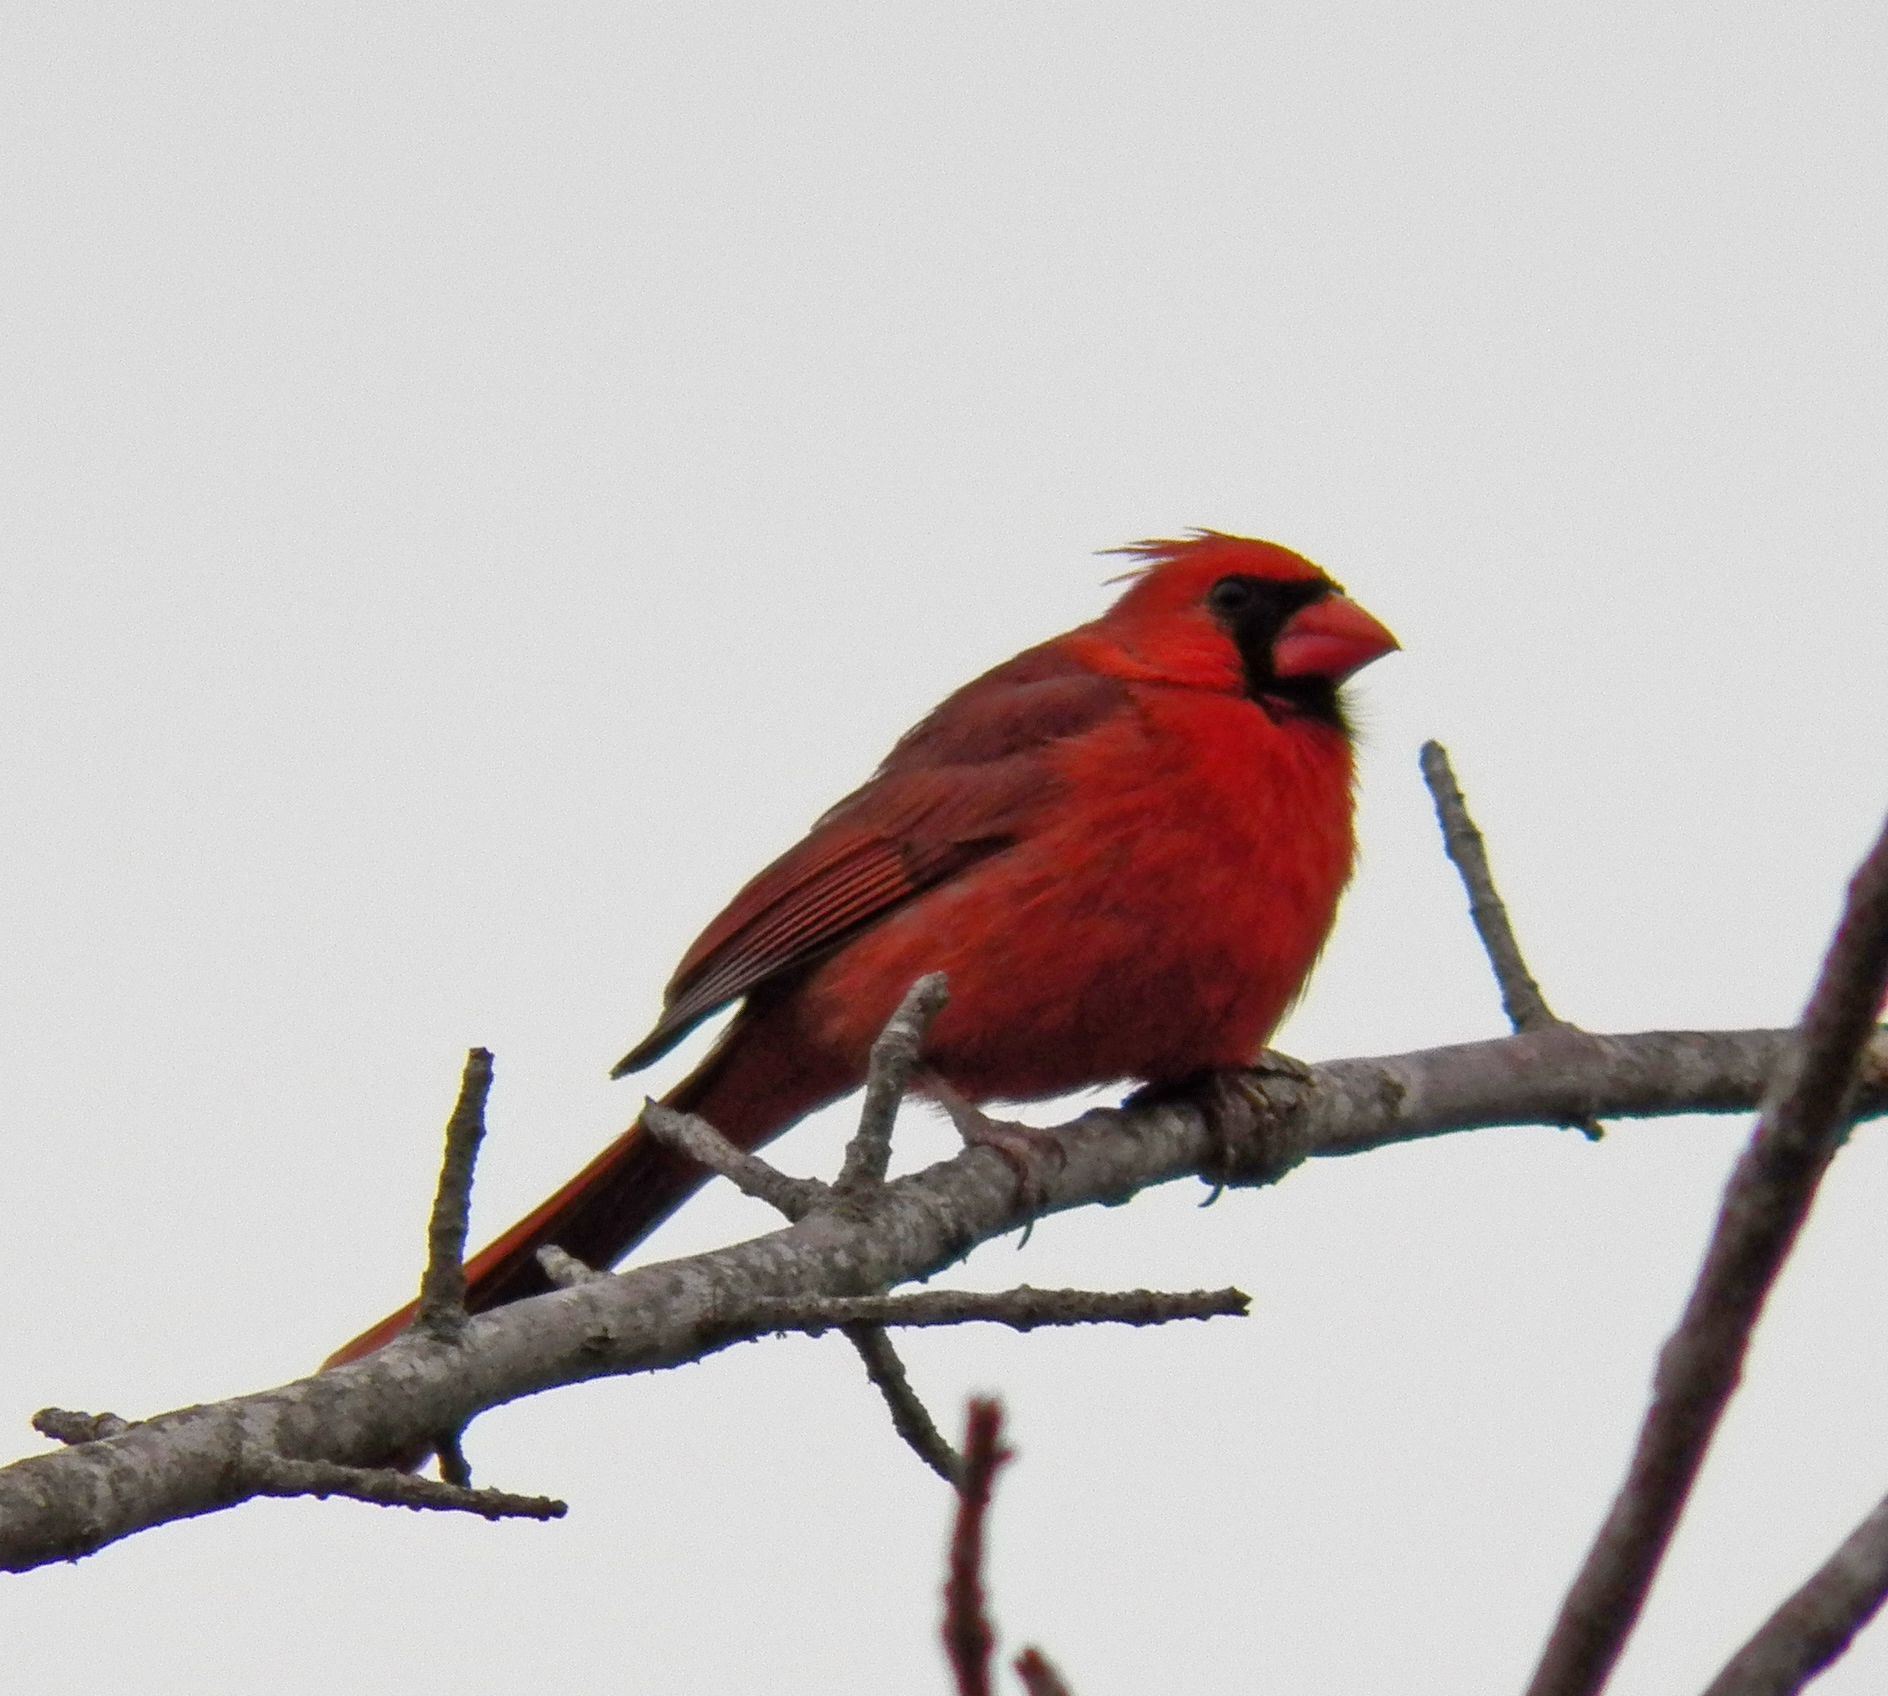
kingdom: Animalia
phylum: Chordata
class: Aves
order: Passeriformes
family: Cardinalidae
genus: Cardinalis
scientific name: Cardinalis cardinalis
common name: Northern cardinal
